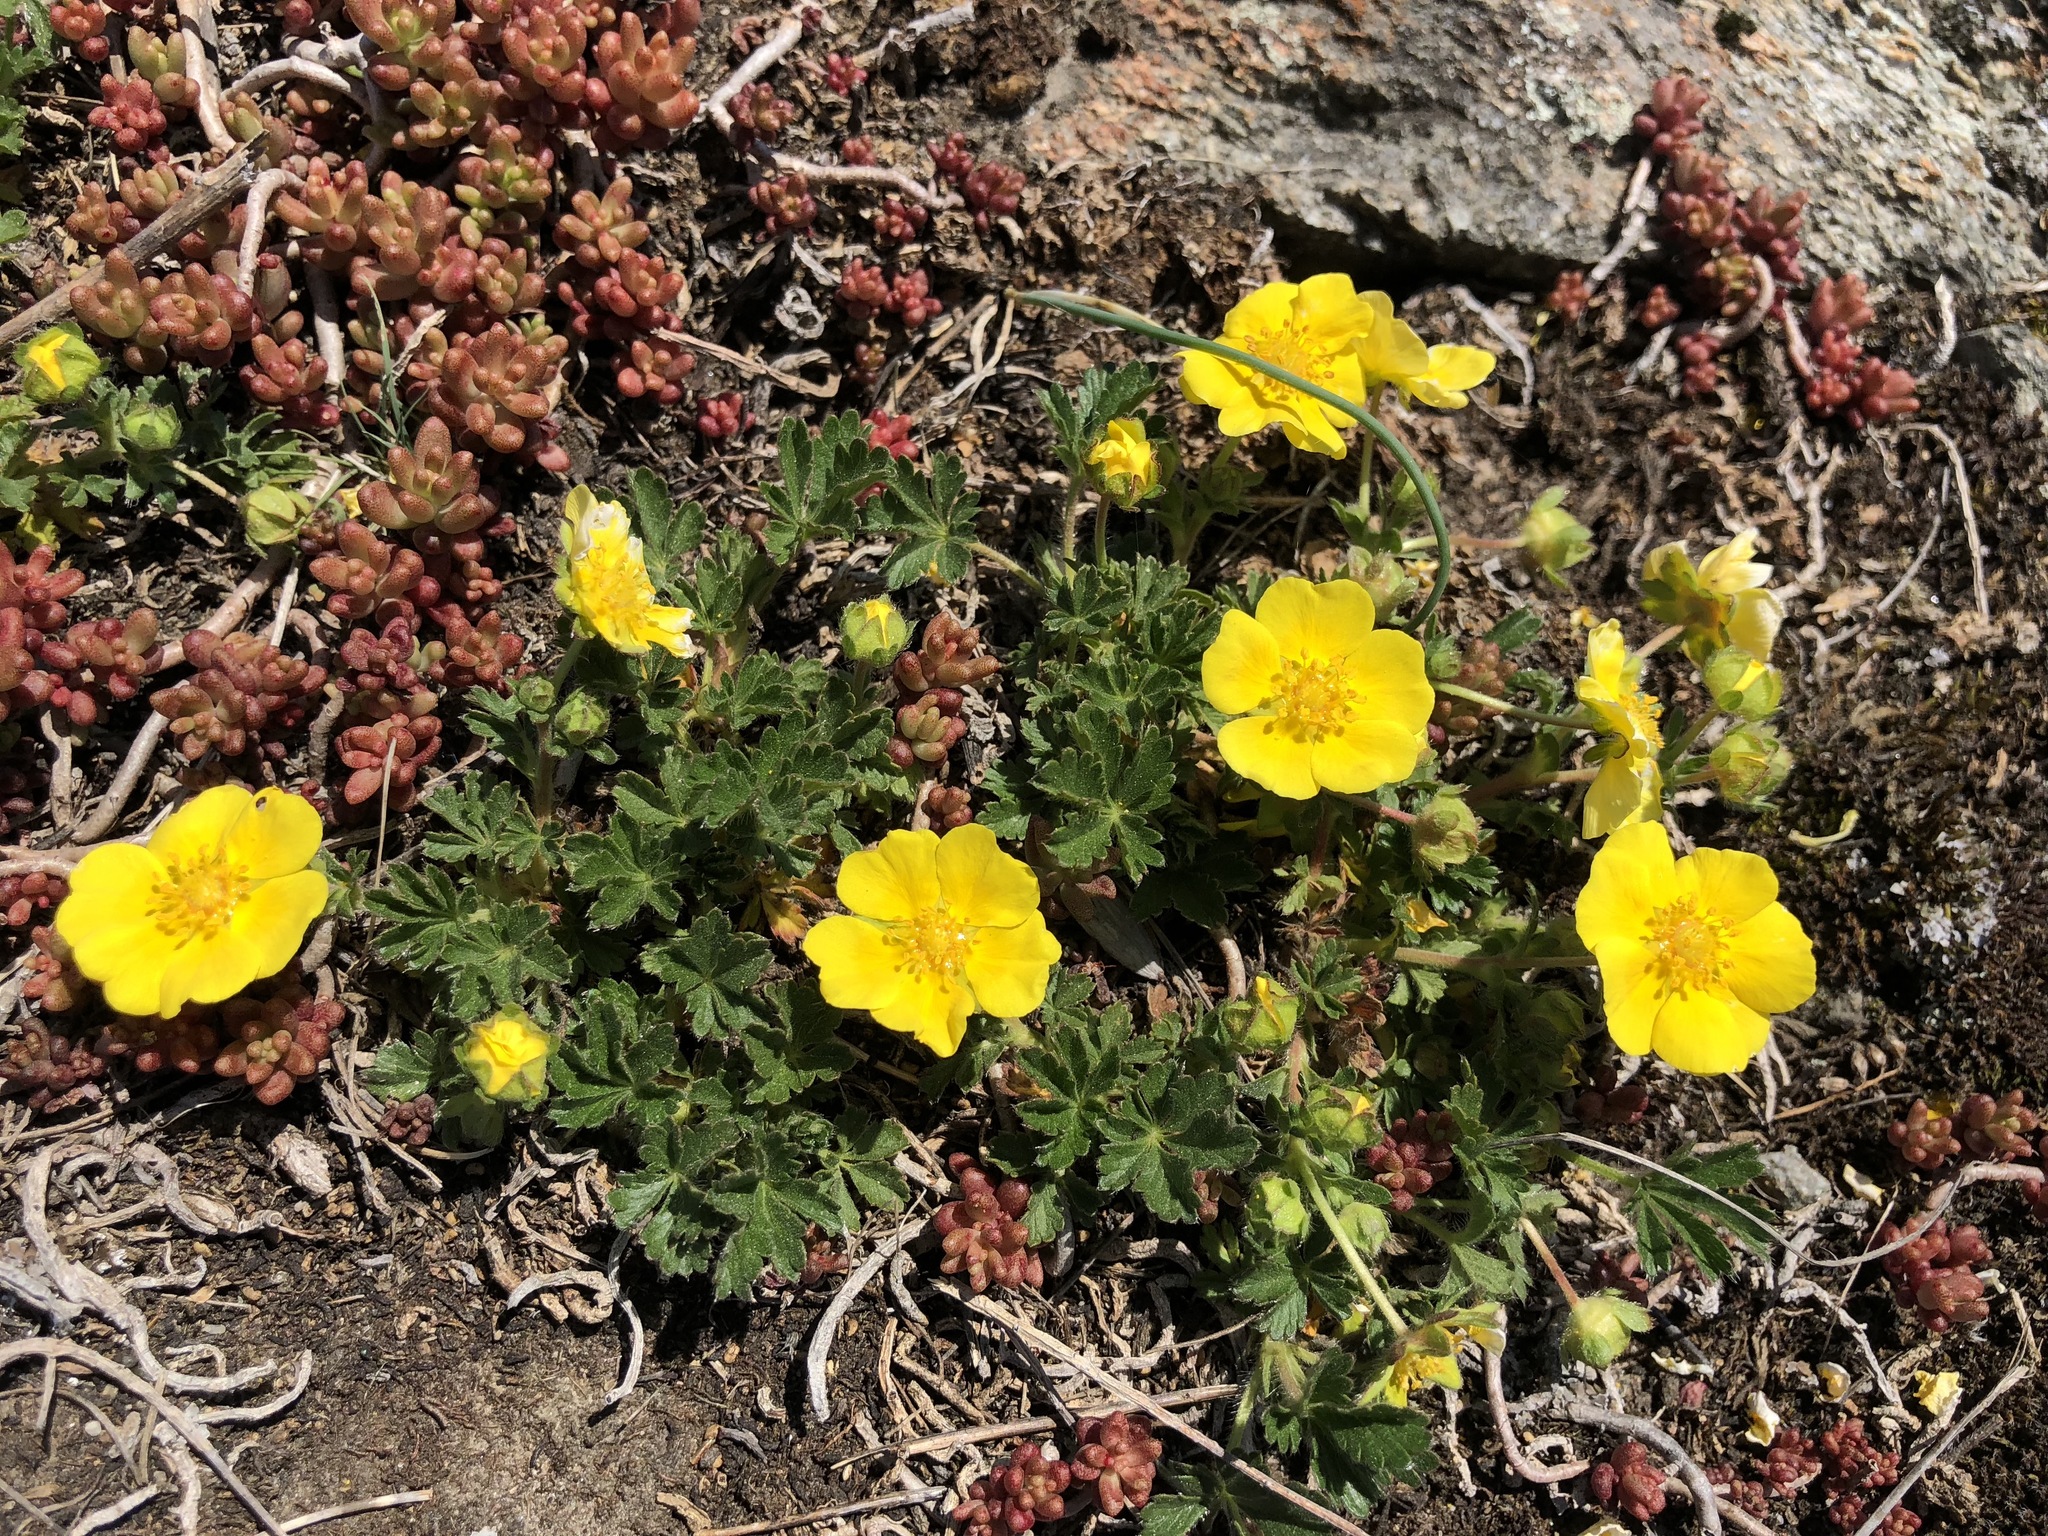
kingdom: Plantae
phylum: Tracheophyta
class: Magnoliopsida
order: Rosales
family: Rosaceae
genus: Potentilla
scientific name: Potentilla pusilla
